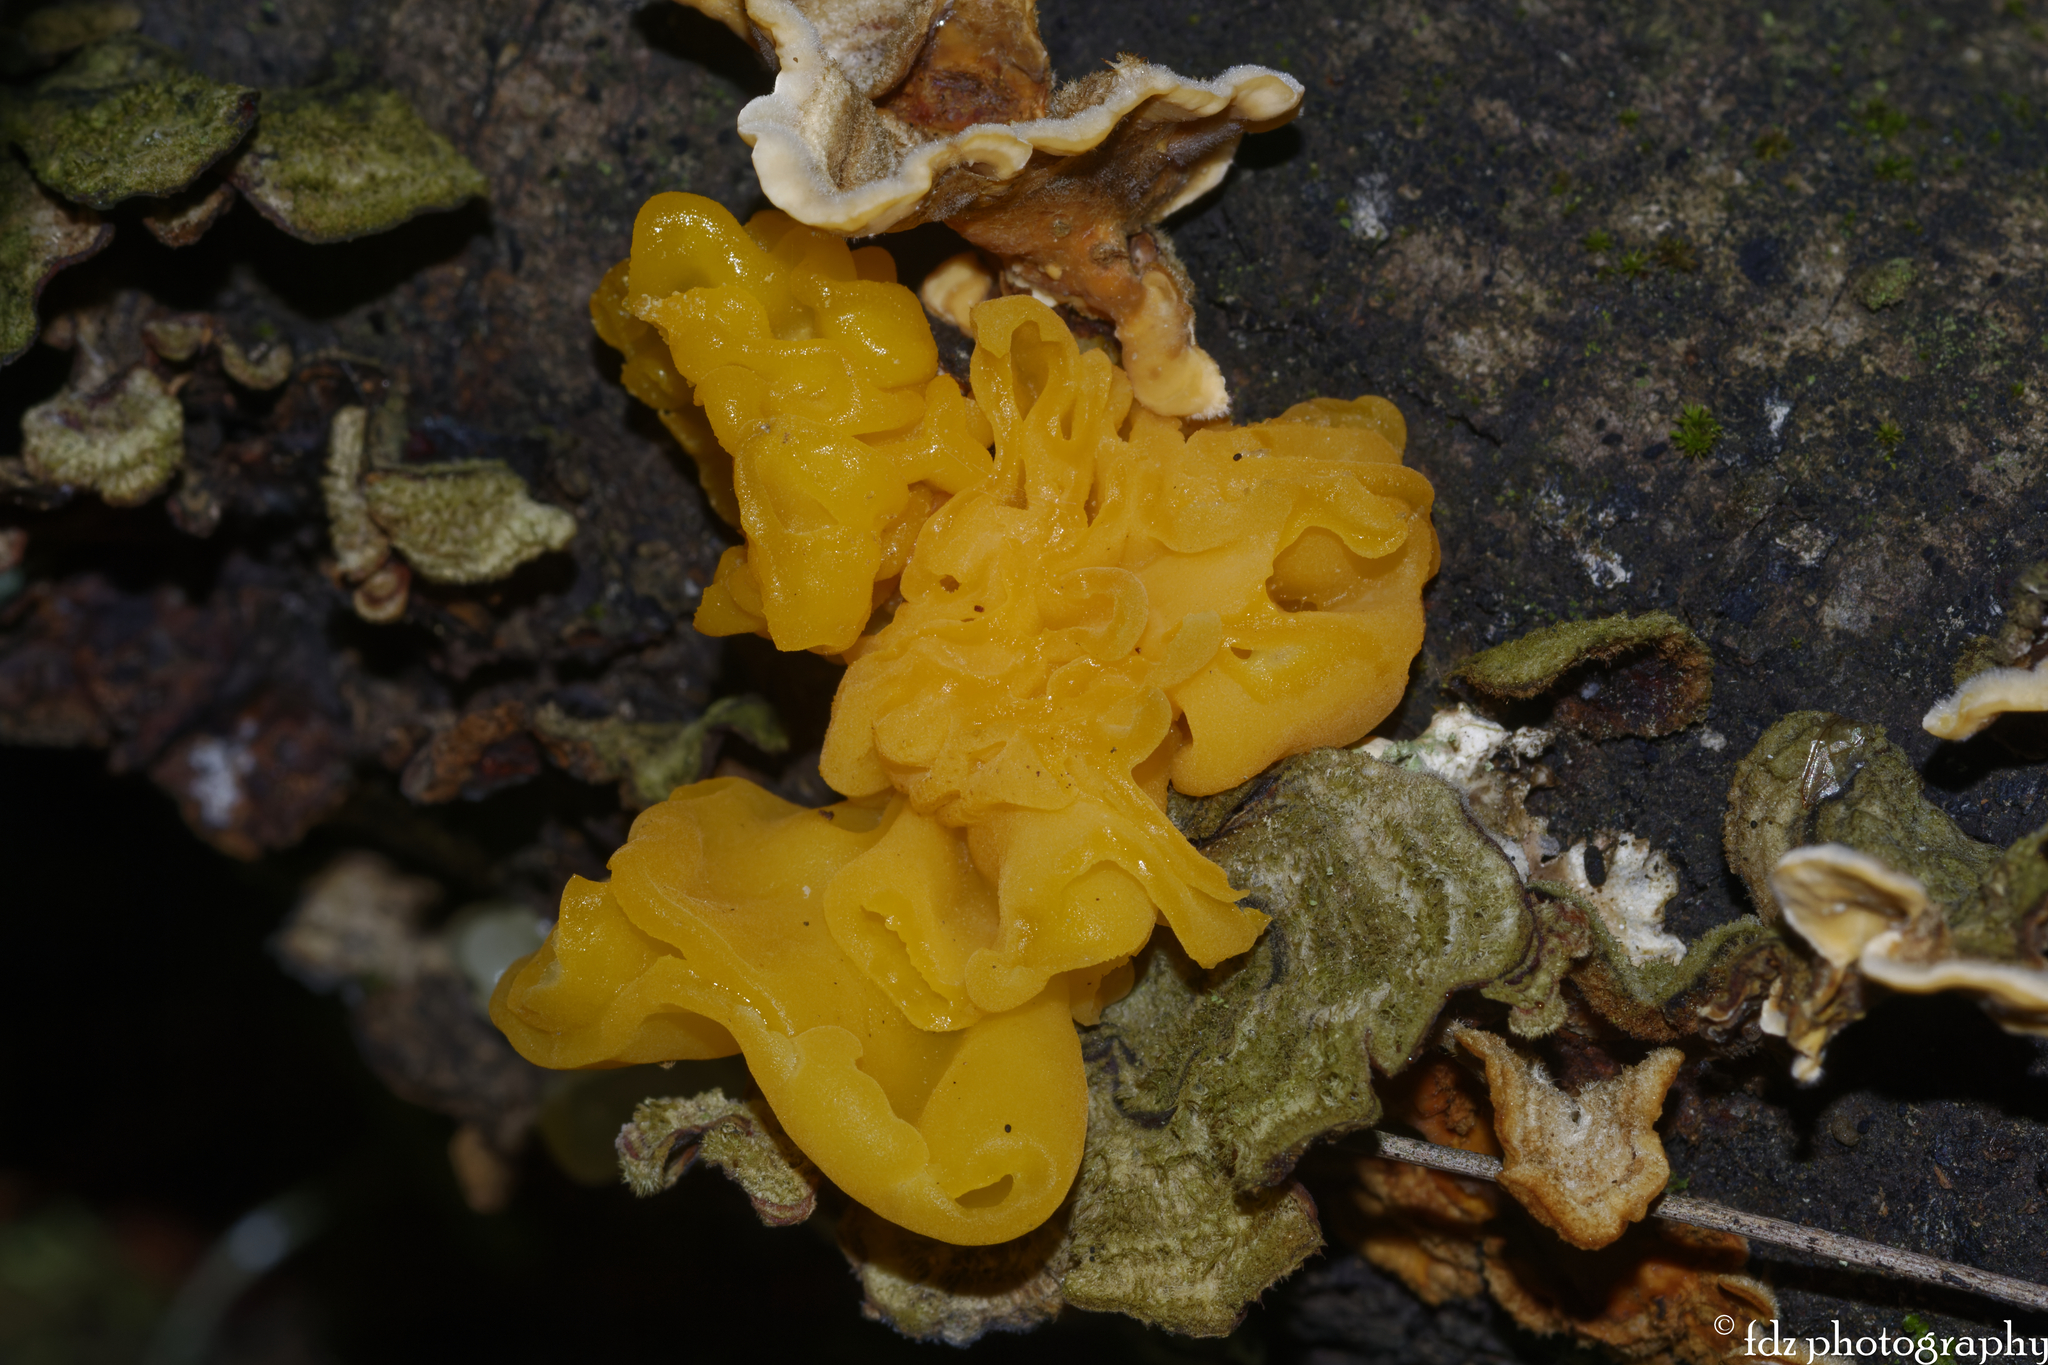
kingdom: Fungi
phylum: Basidiomycota
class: Tremellomycetes
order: Tremellales
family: Naemateliaceae
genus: Naematelia
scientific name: Naematelia aurantia
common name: Golden ear
